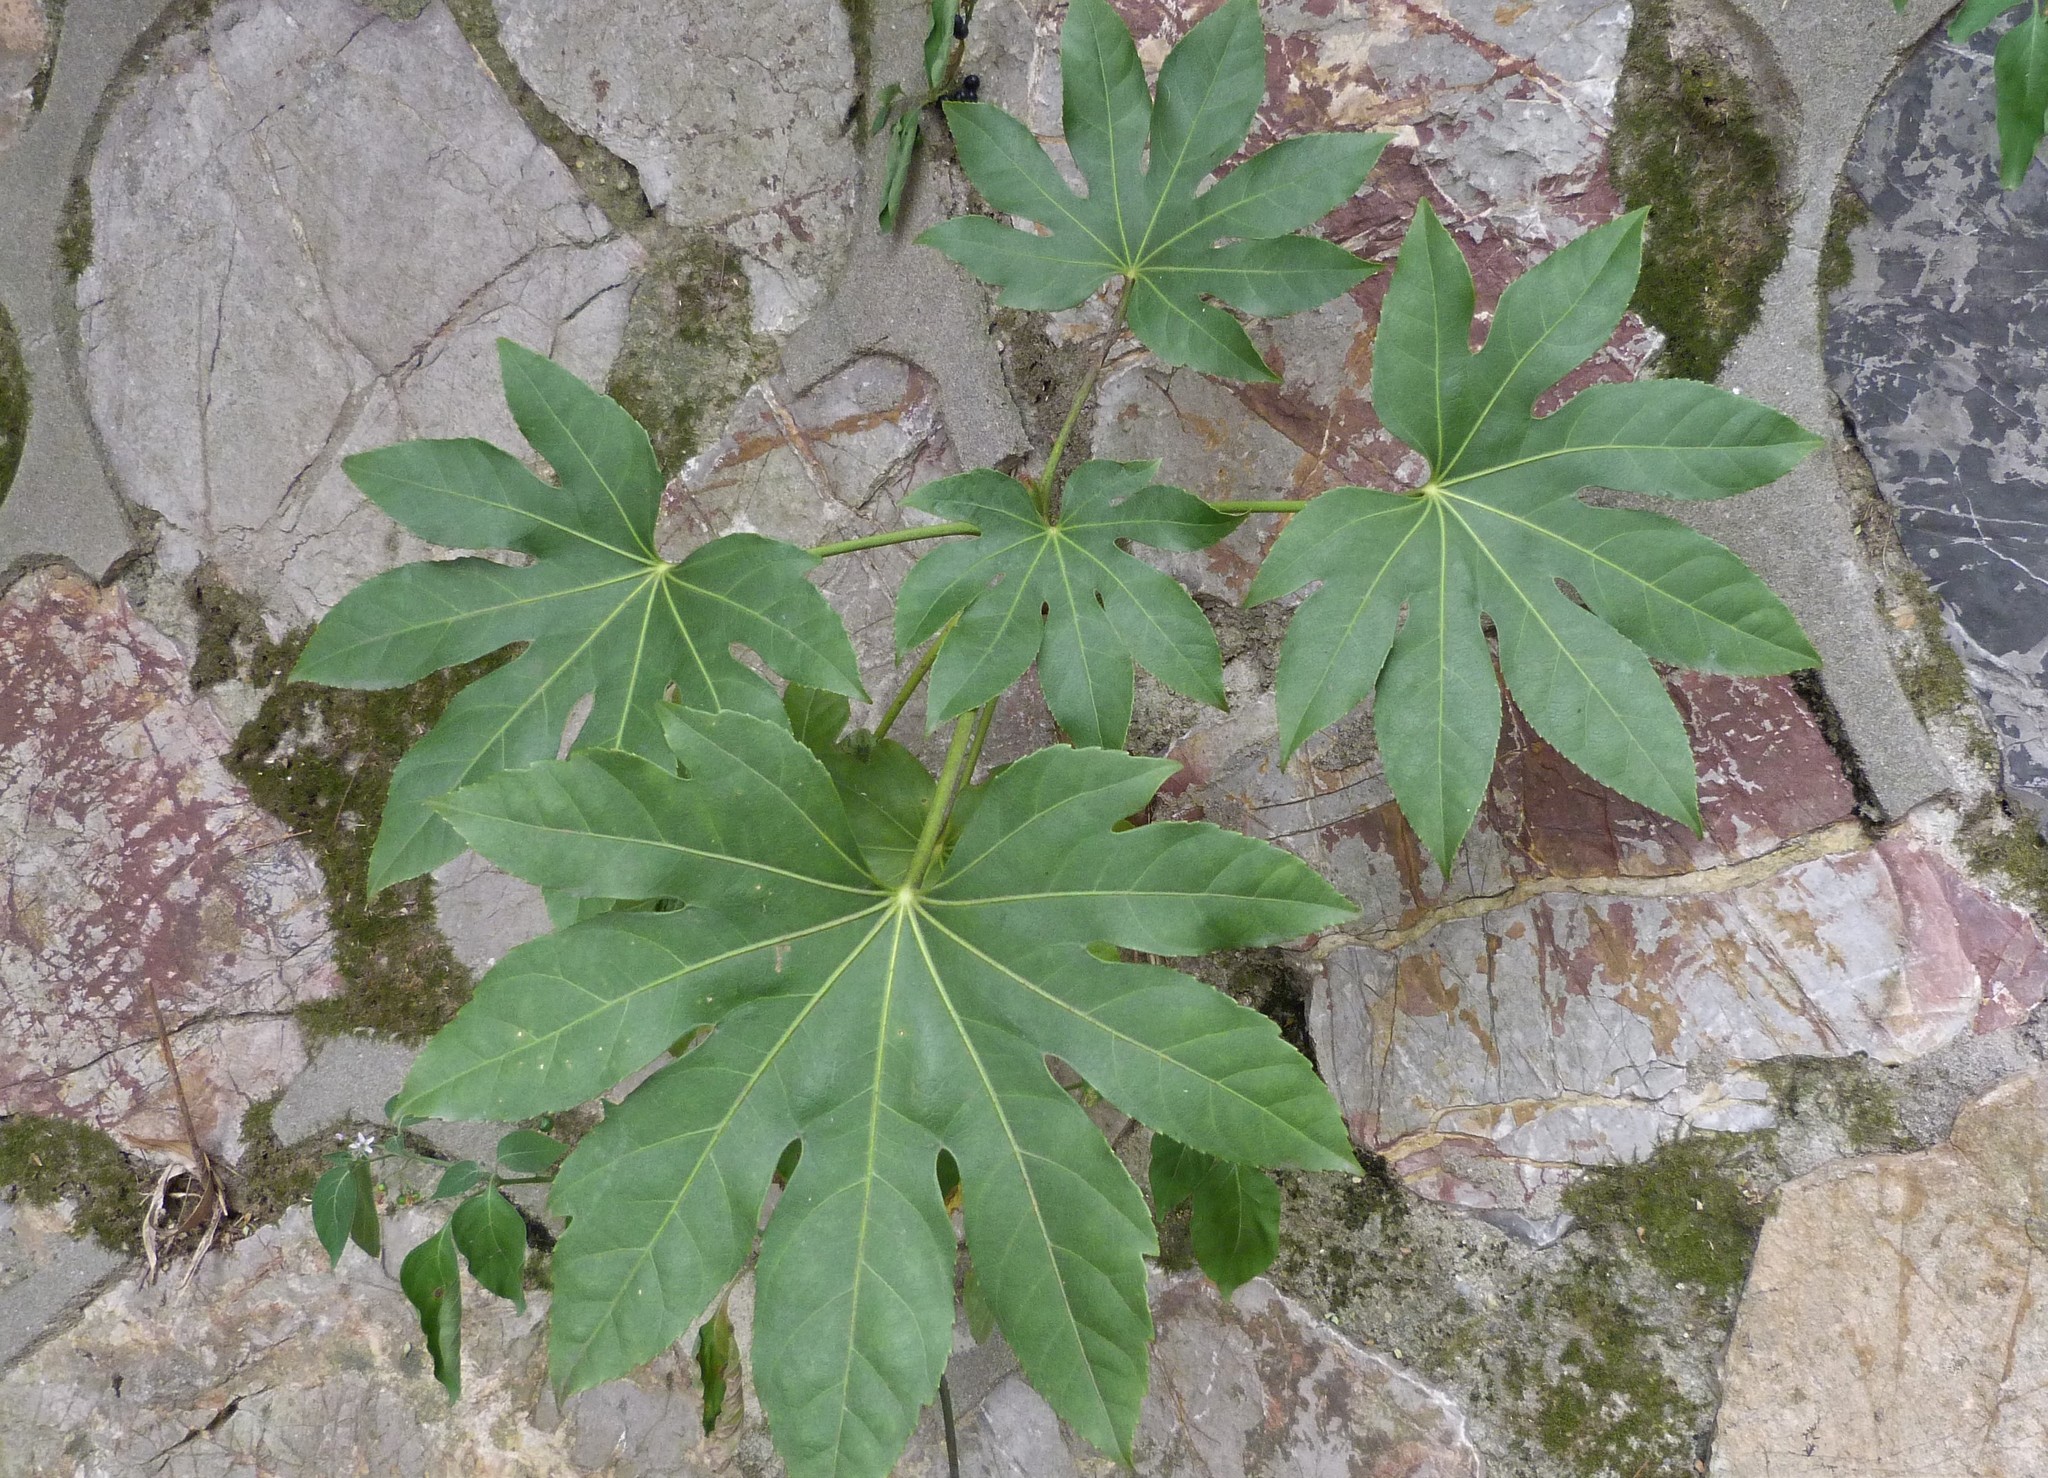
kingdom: Plantae
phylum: Tracheophyta
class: Magnoliopsida
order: Apiales
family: Araliaceae
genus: Fatsia
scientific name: Fatsia japonica
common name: Fatsia
